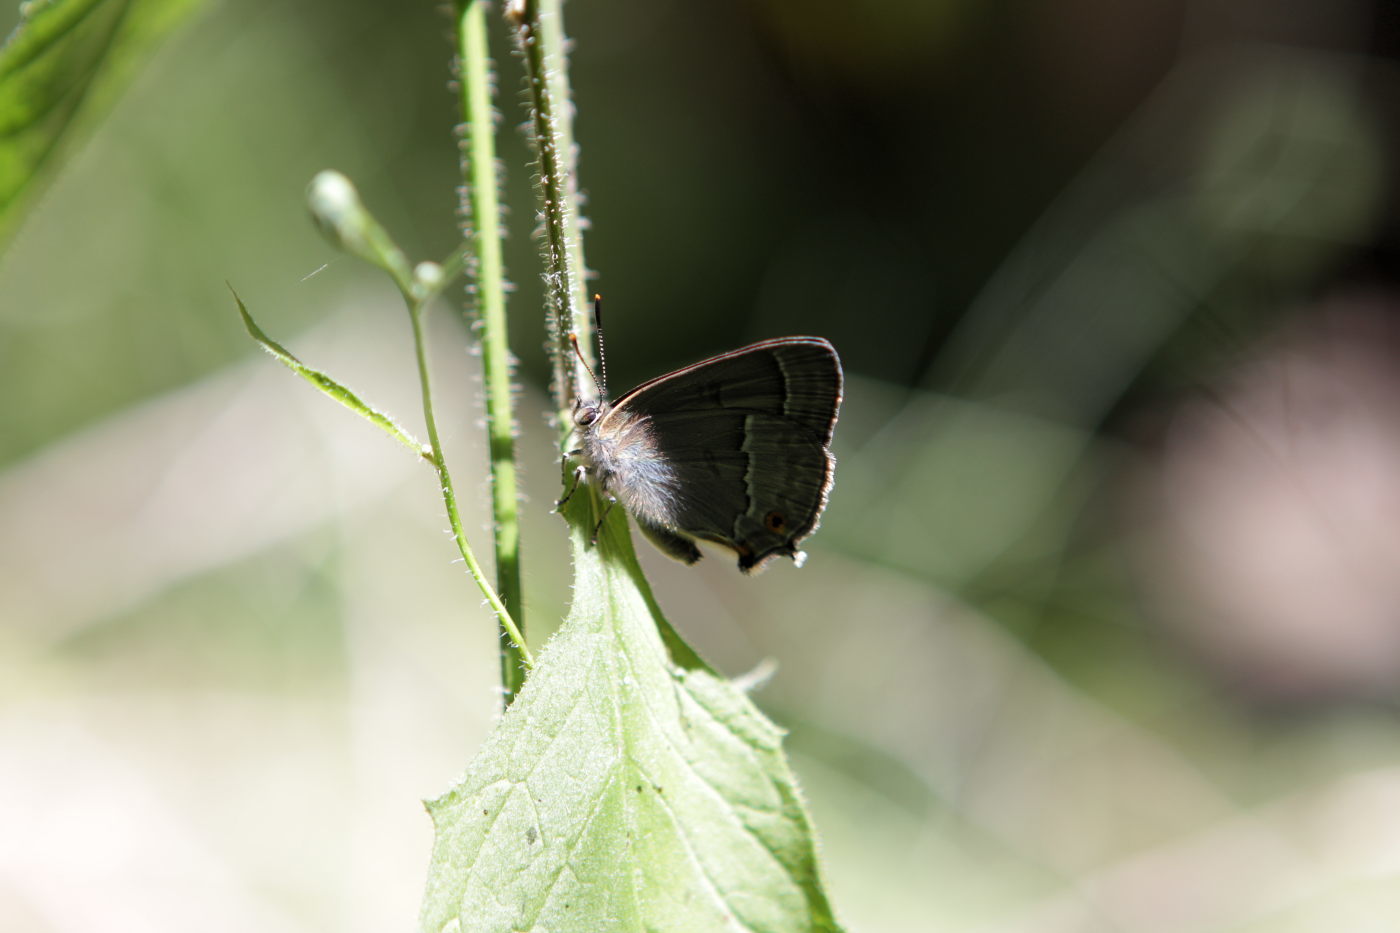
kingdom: Animalia
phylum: Arthropoda
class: Insecta
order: Lepidoptera
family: Lycaenidae
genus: Quercusia
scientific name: Quercusia quercus
